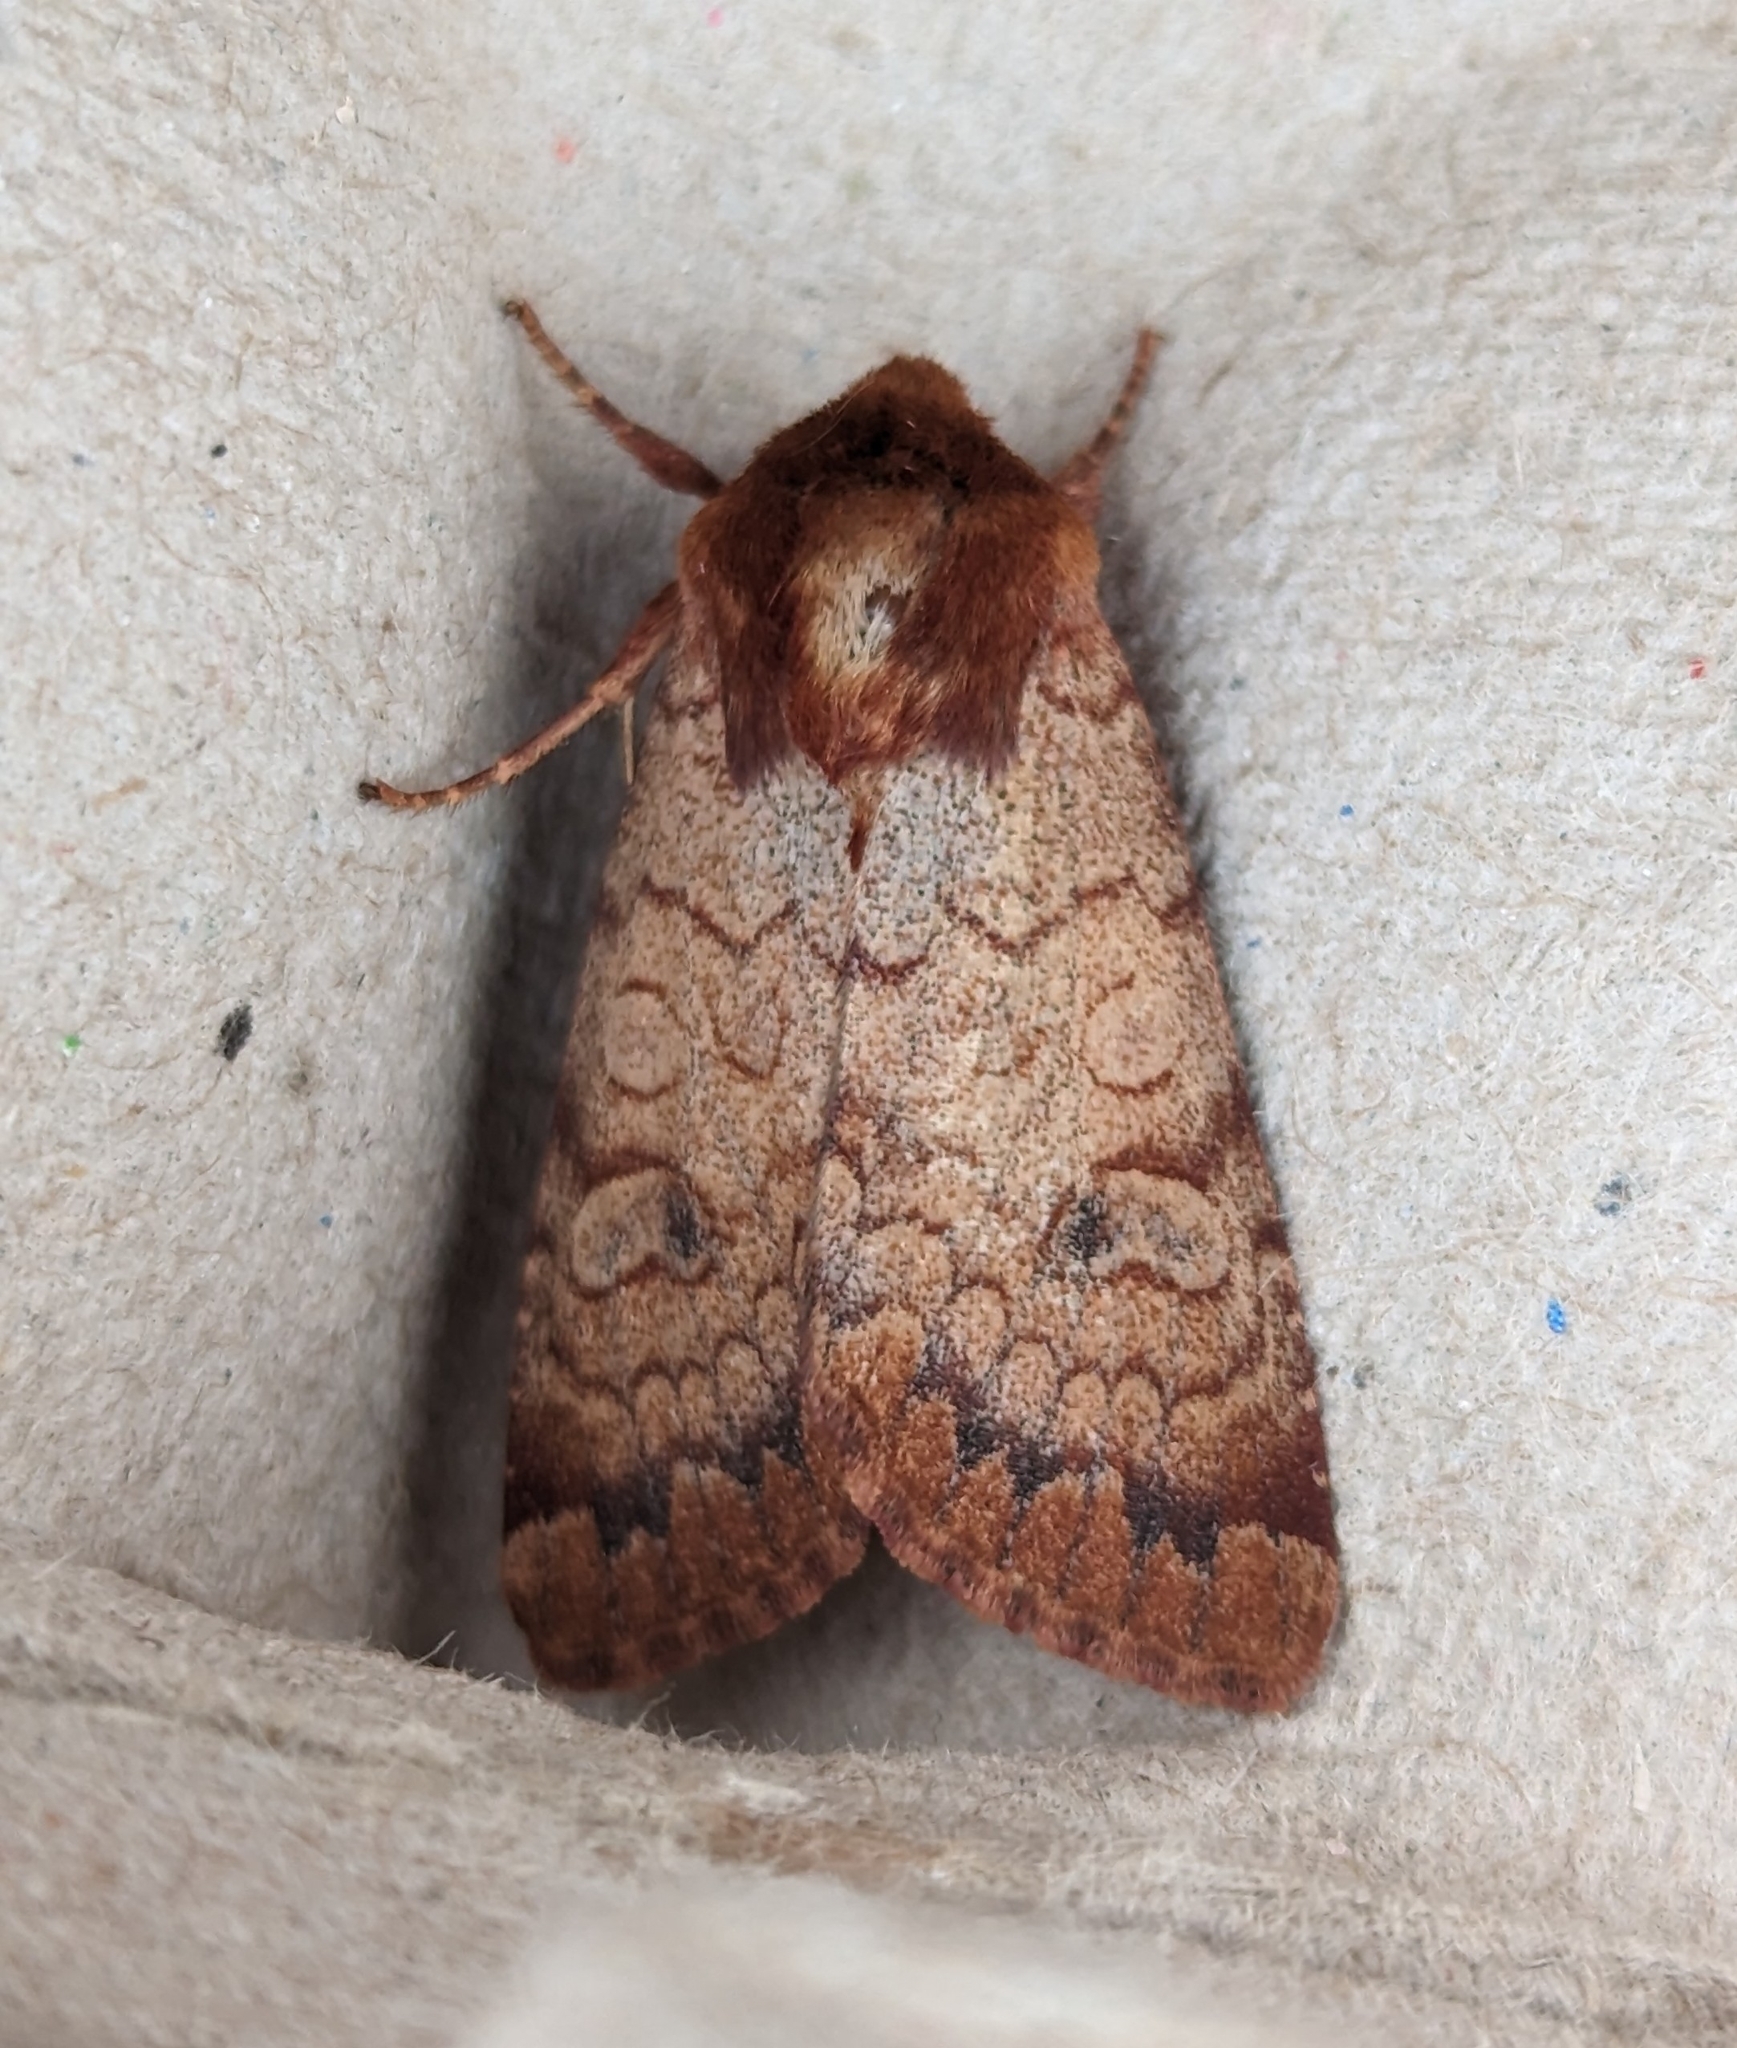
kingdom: Animalia
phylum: Arthropoda
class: Insecta
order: Lepidoptera
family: Noctuidae
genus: Sideridis
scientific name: Sideridis rosea
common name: Rosewing moth
